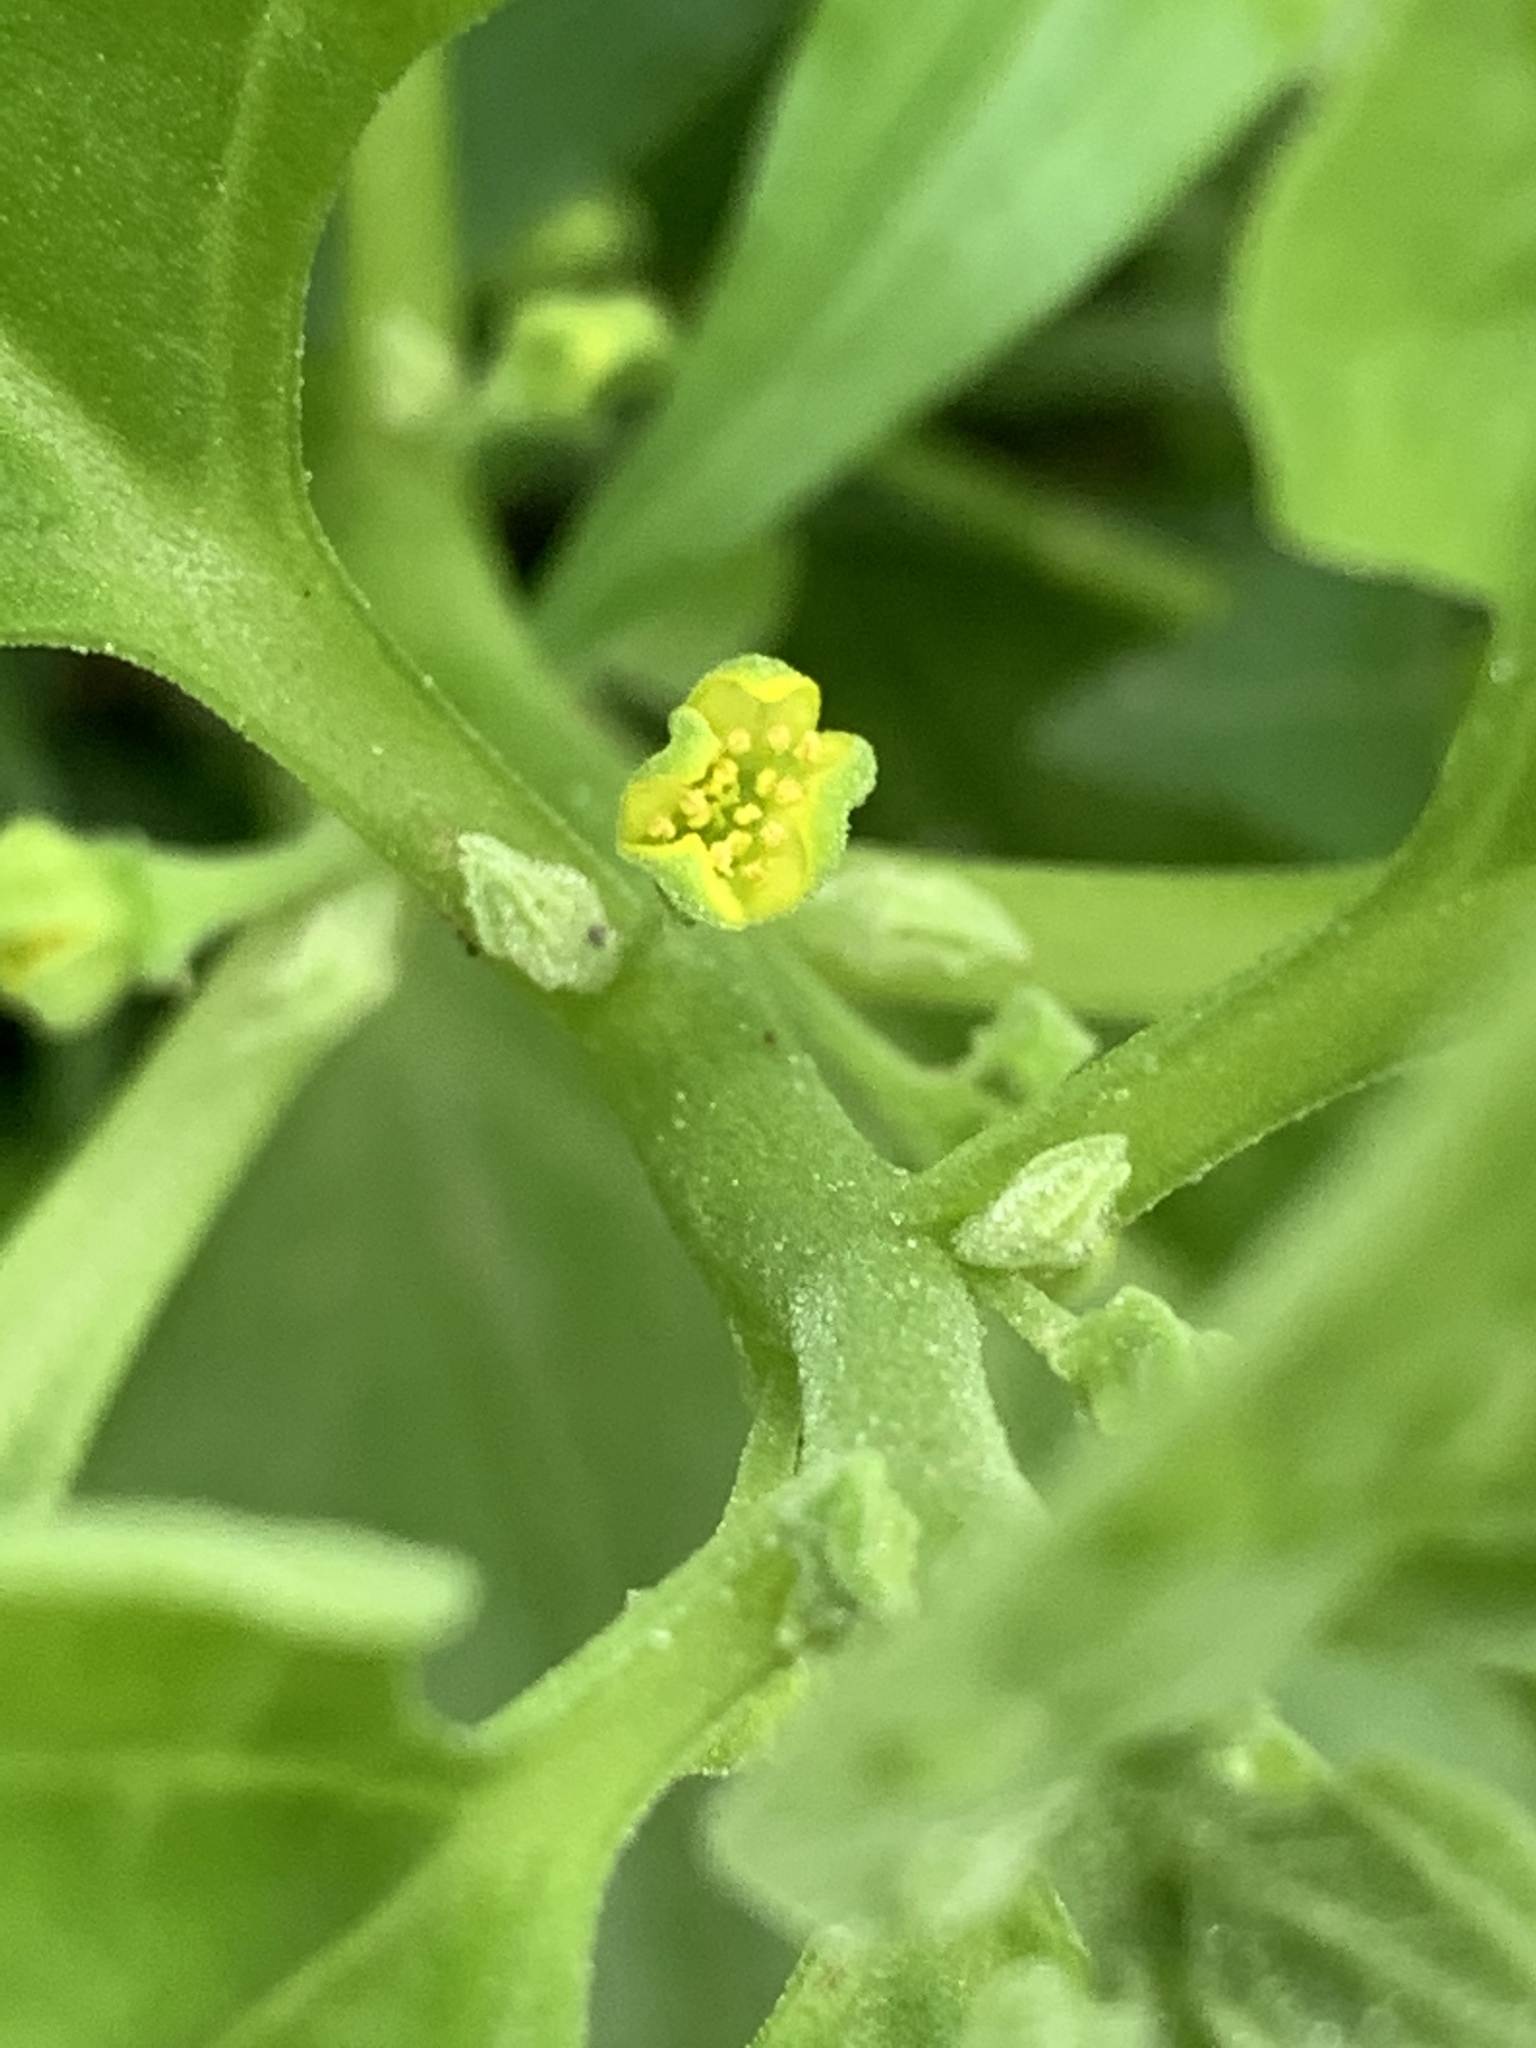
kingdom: Plantae
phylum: Tracheophyta
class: Magnoliopsida
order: Caryophyllales
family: Aizoaceae
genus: Tetragonia
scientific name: Tetragonia tetragonoides
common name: New zealand-spinach
